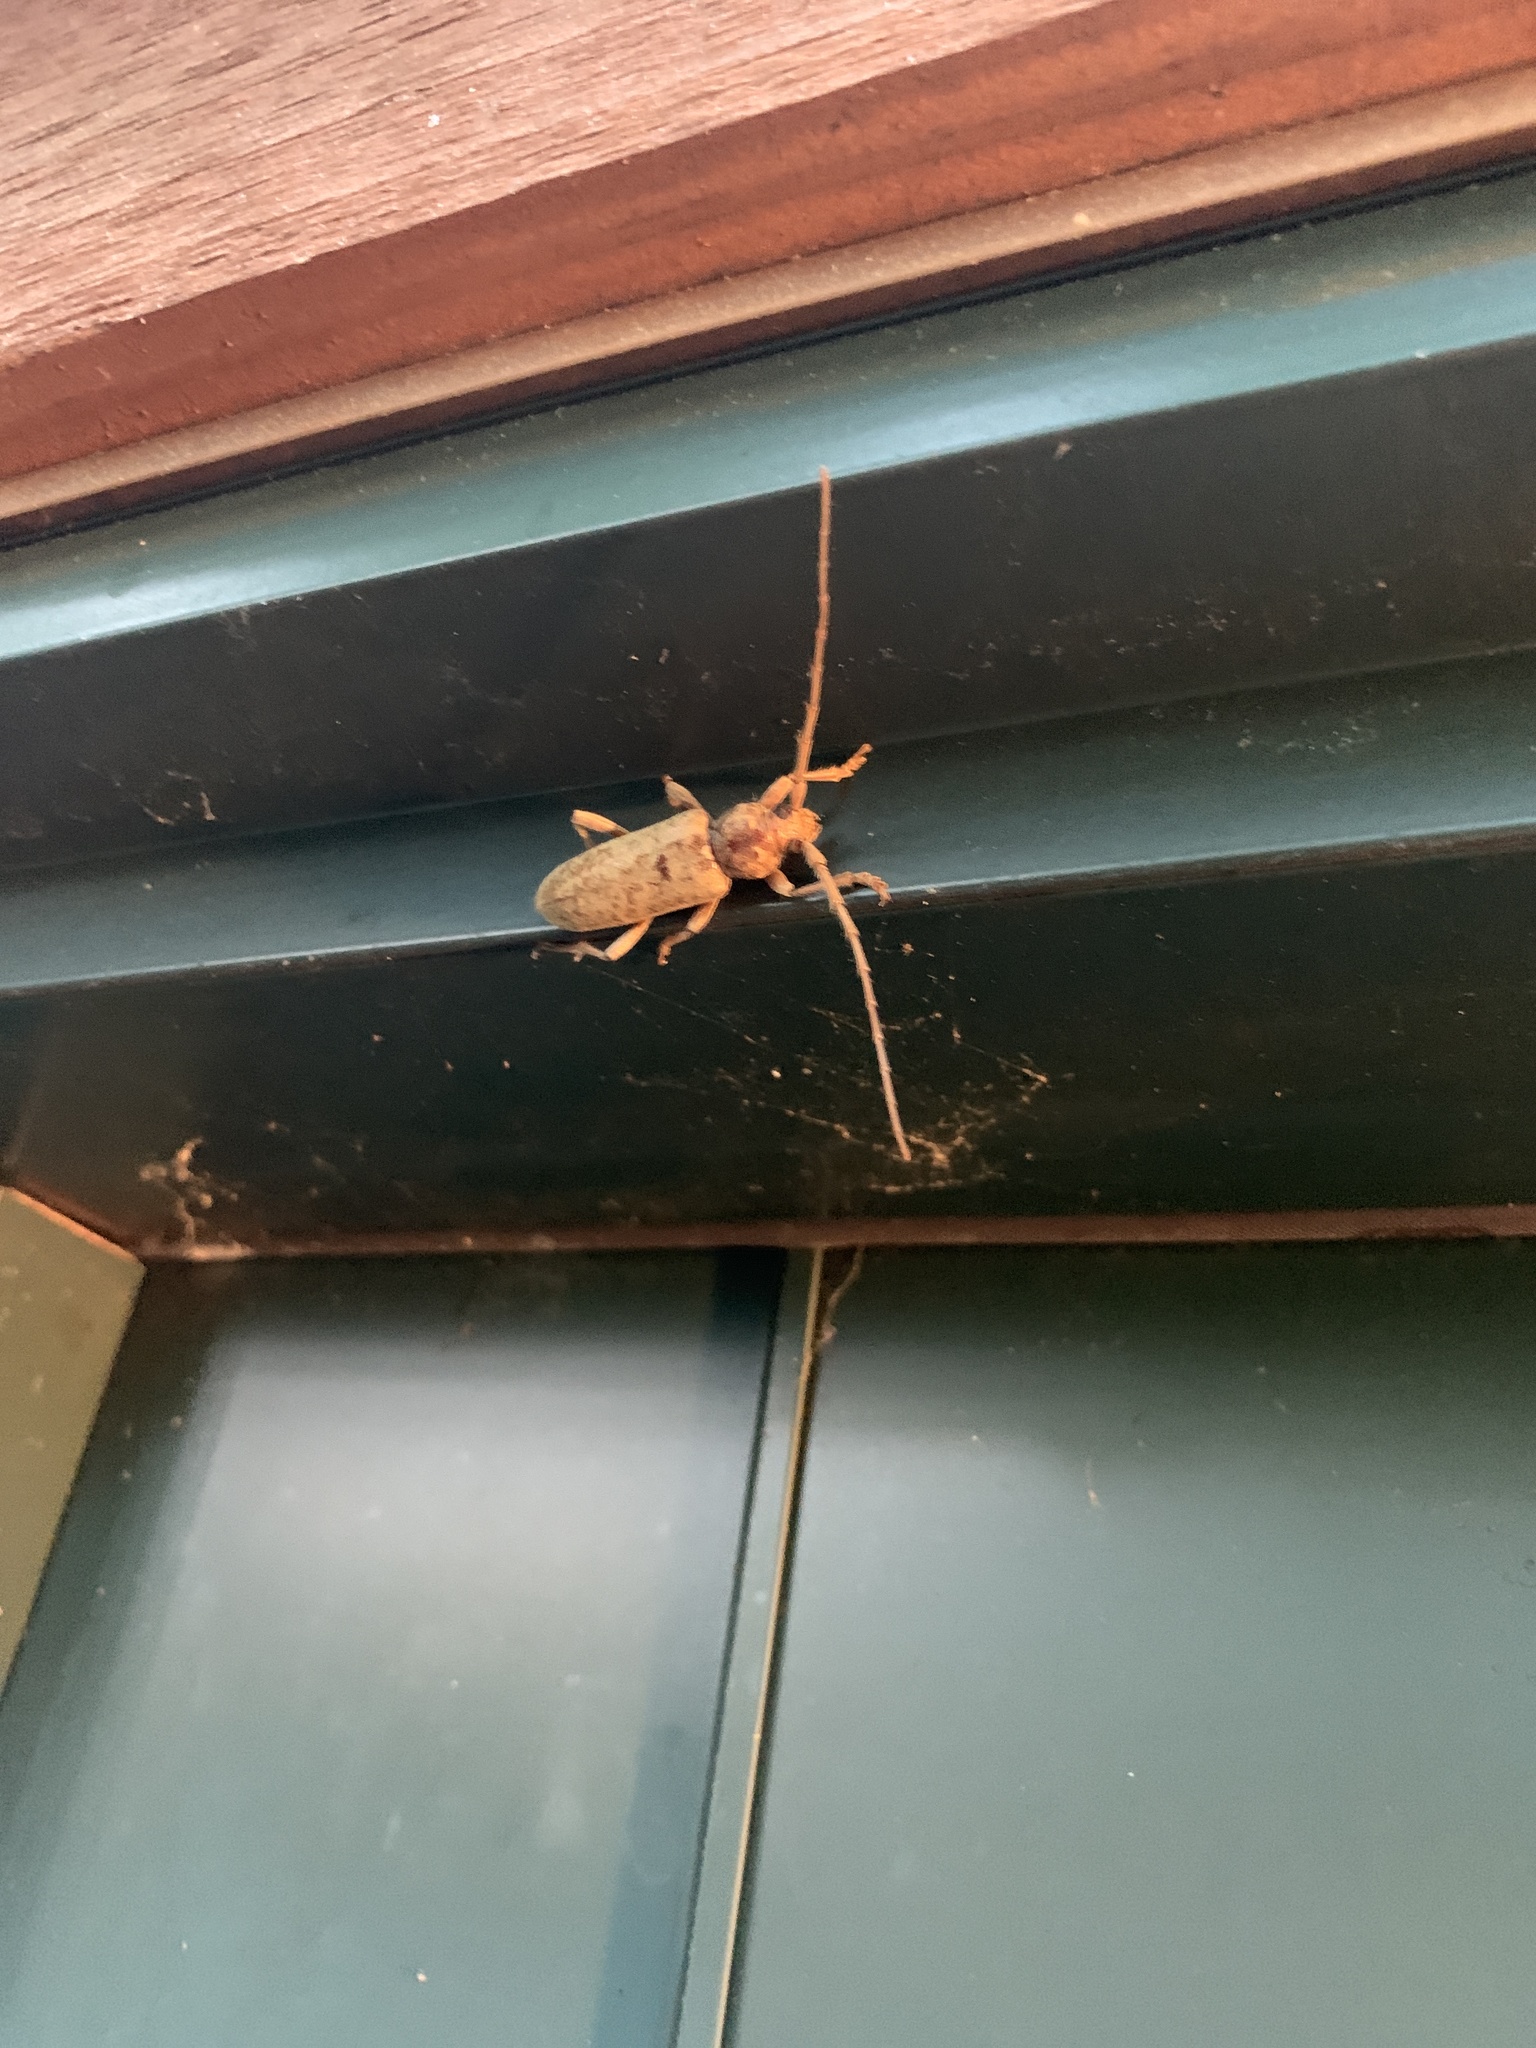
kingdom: Animalia
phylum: Arthropoda
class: Insecta
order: Coleoptera
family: Cerambycidae
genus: Enaphalodes
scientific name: Enaphalodes rufulus
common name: Red oak borer
